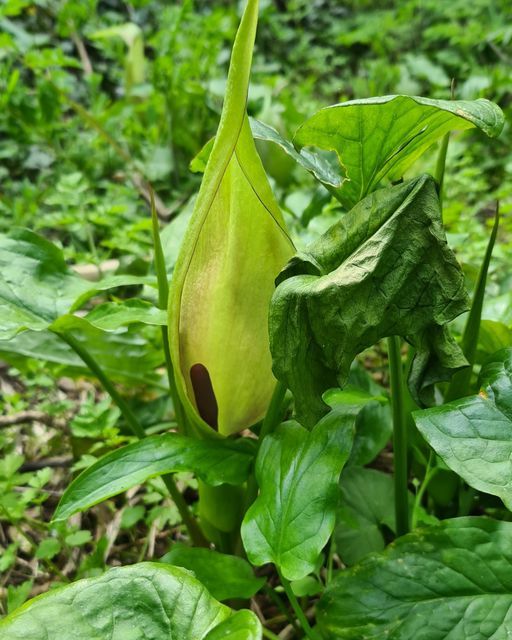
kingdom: Plantae
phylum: Tracheophyta
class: Liliopsida
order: Alismatales
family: Araceae
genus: Arum
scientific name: Arum maculatum
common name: Lords-and-ladies
